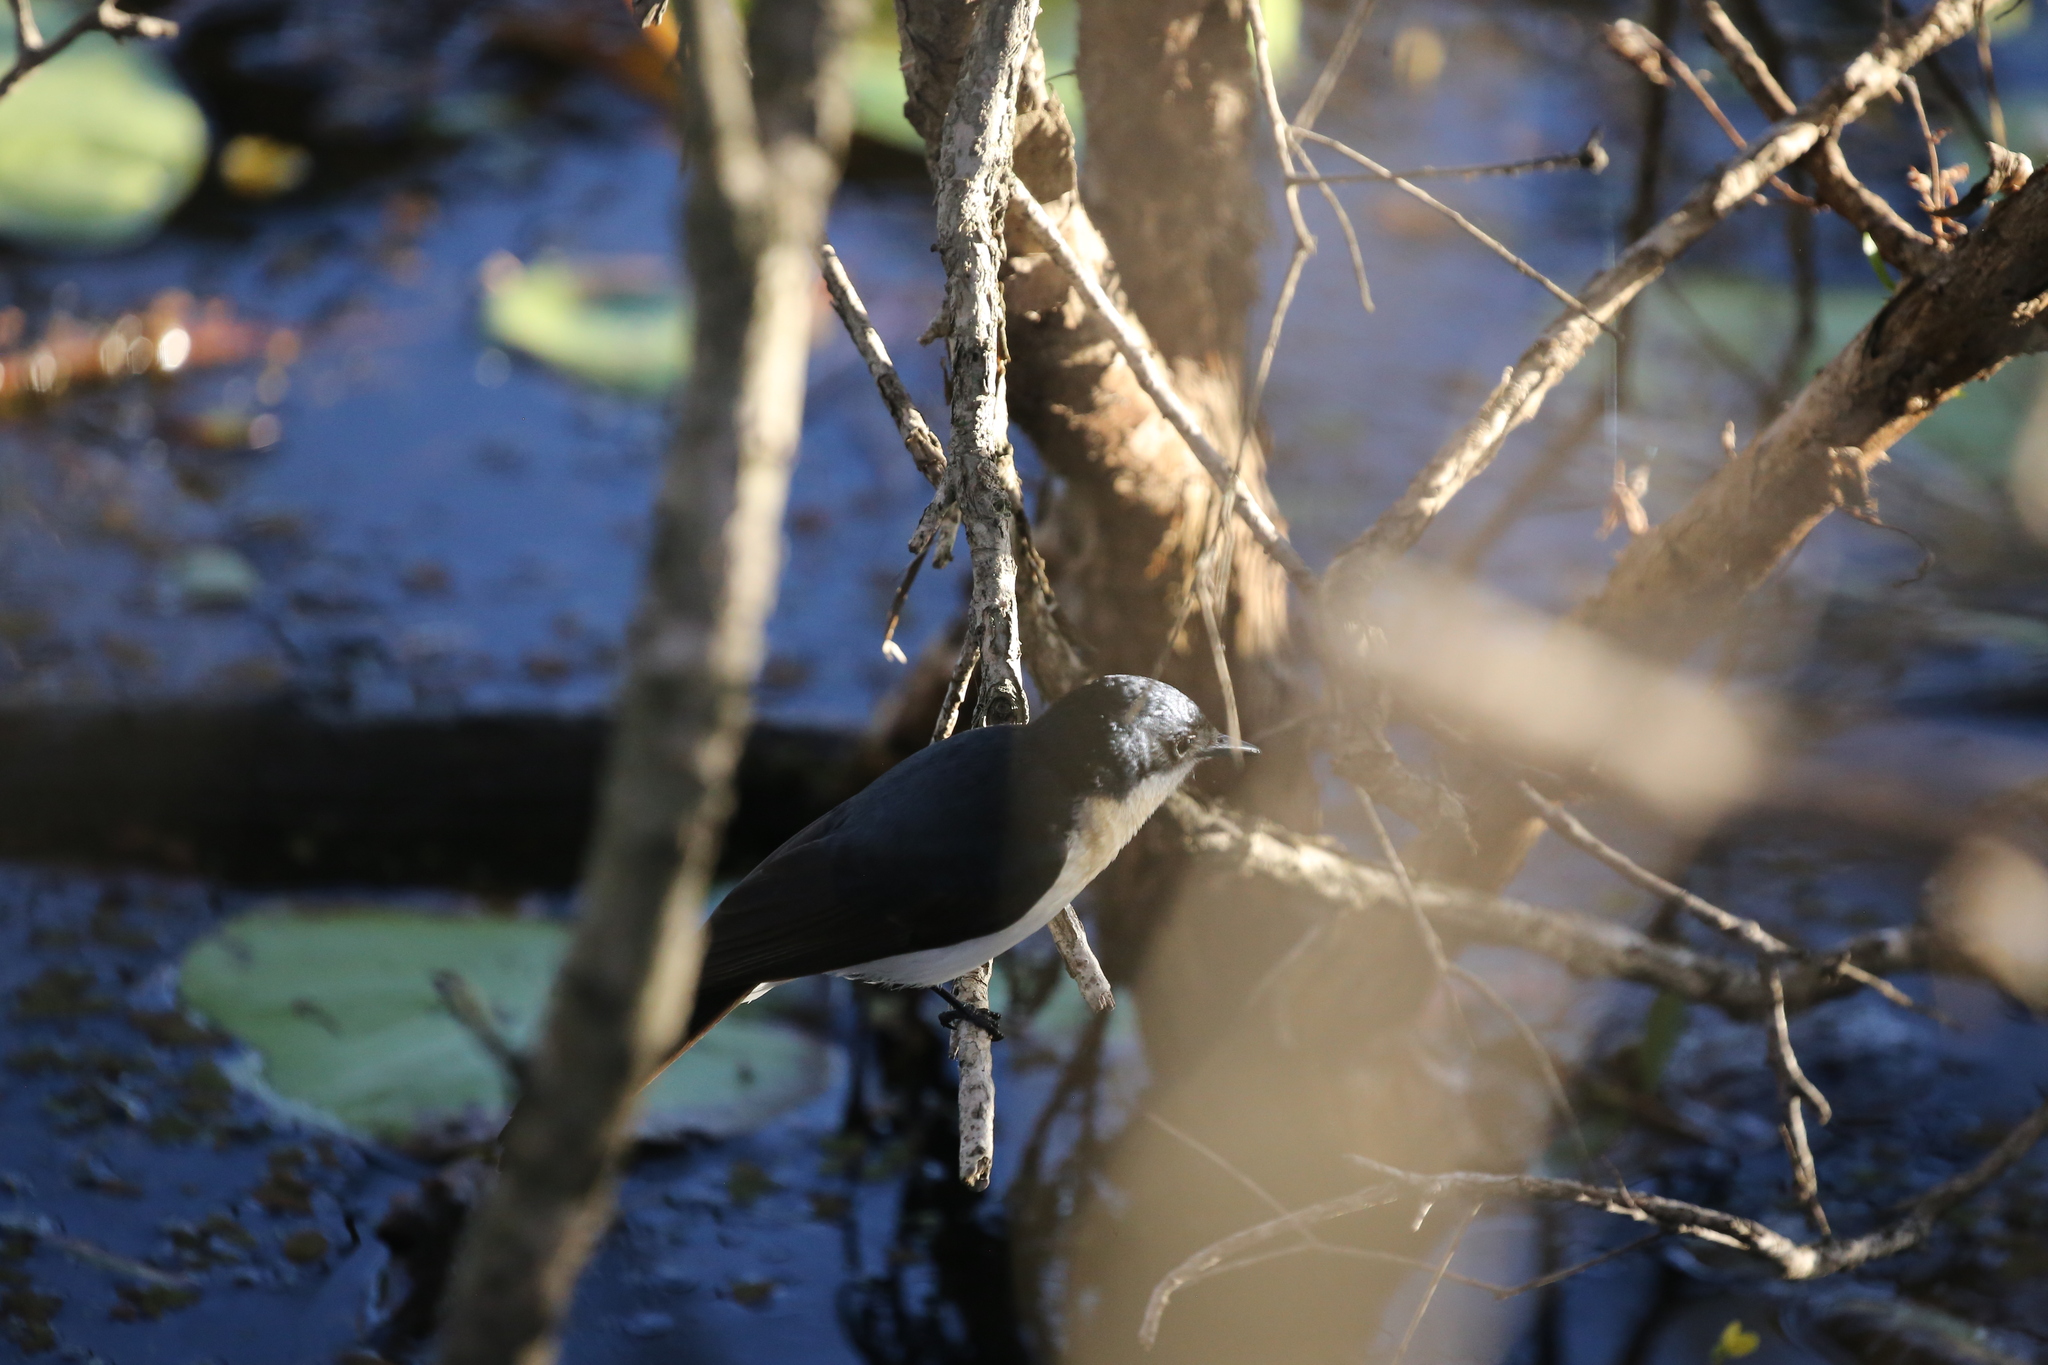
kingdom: Animalia
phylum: Chordata
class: Aves
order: Passeriformes
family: Monarchidae
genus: Myiagra
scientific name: Myiagra inquieta
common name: Restless flycatcher
